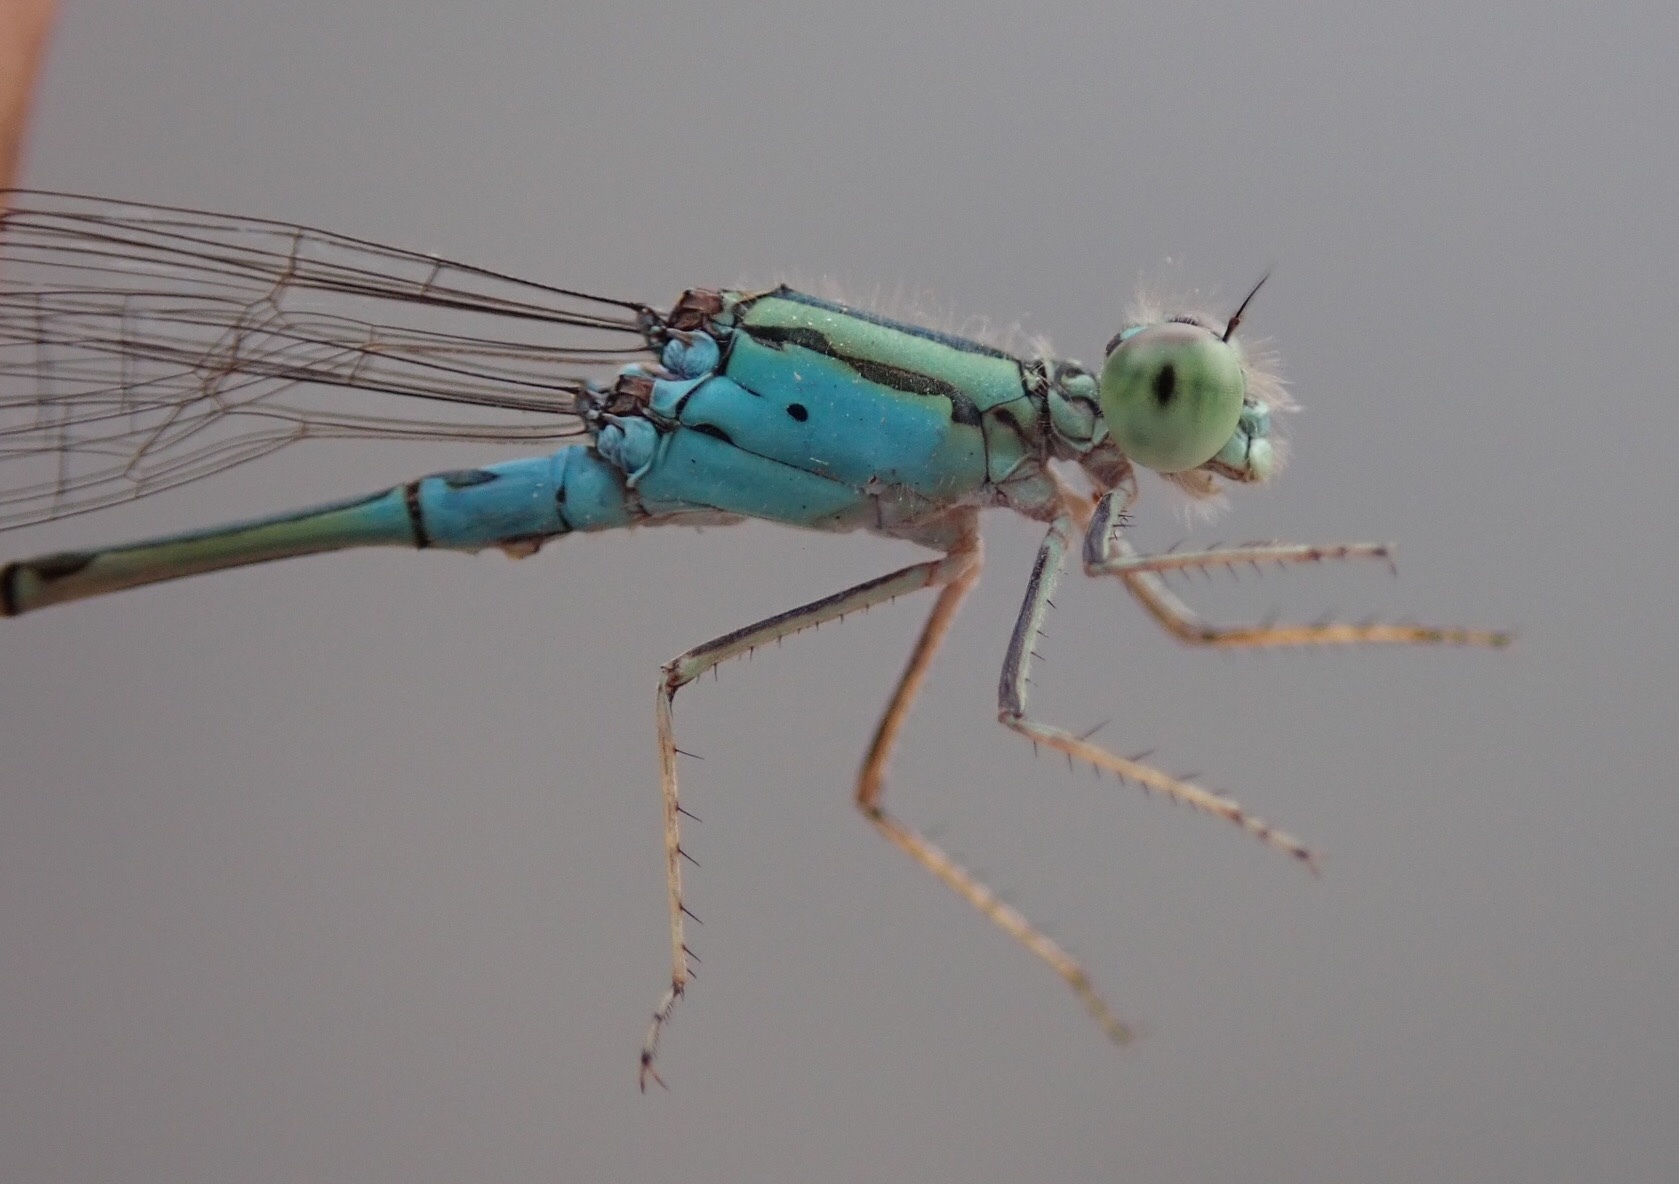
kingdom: Animalia
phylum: Arthropoda
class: Insecta
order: Odonata
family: Coenagrionidae
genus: Pseudagrion
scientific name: Pseudagrion coeleste
